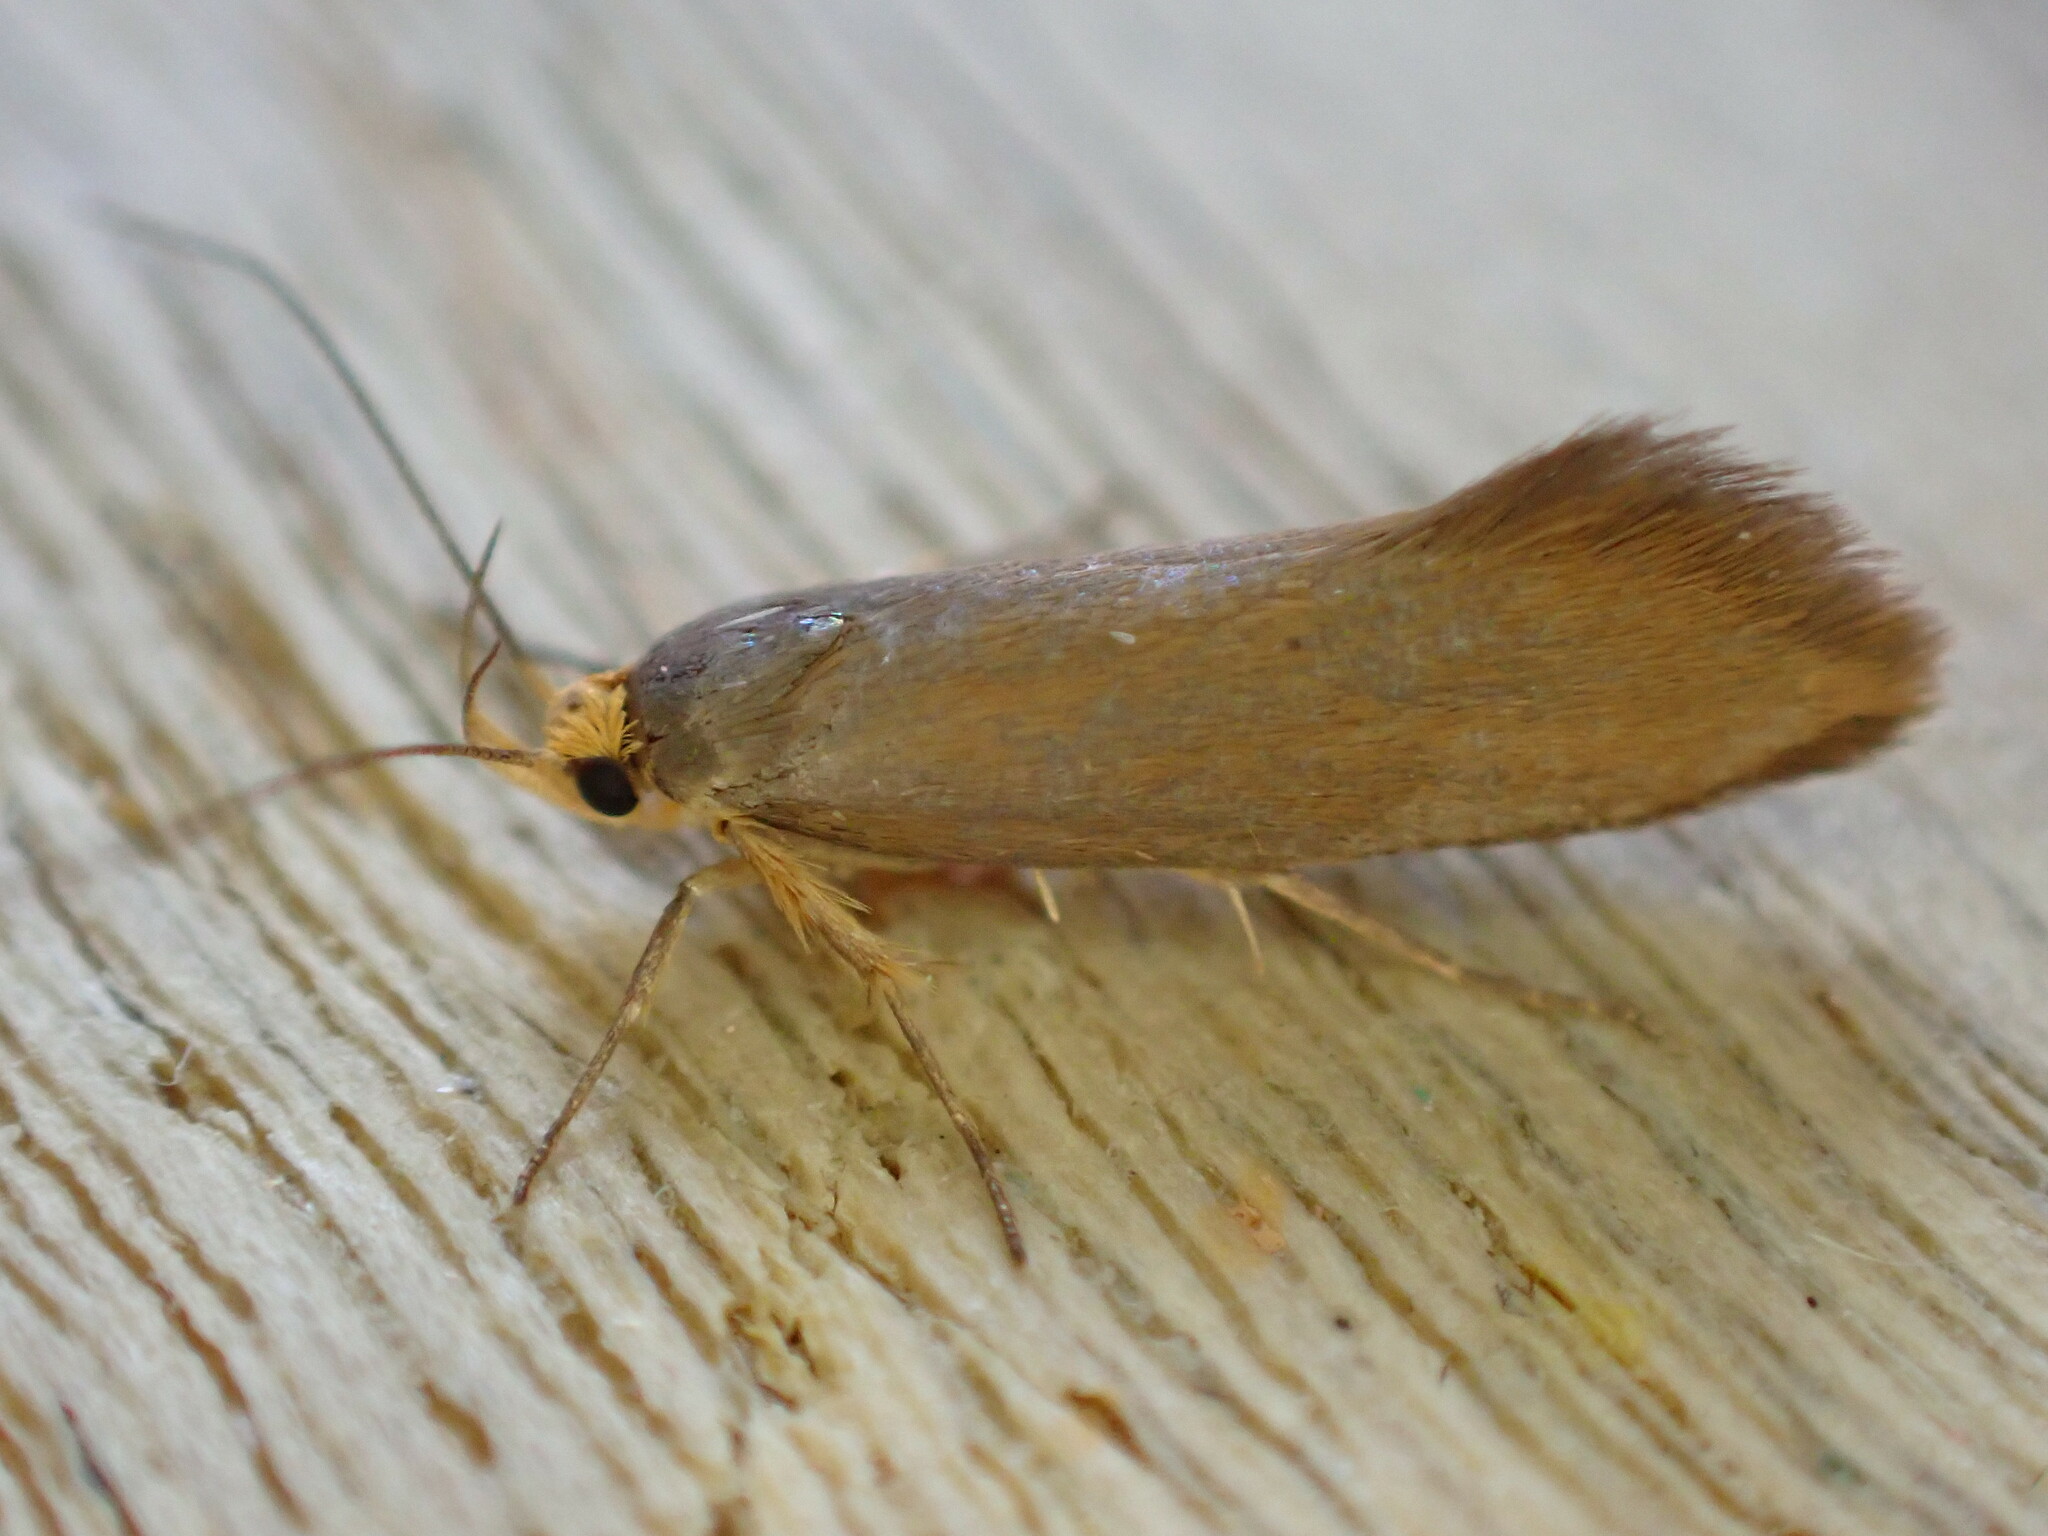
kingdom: Animalia
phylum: Arthropoda
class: Insecta
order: Lepidoptera
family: Oecophoridae
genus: Borkhausenia
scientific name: Borkhausenia Crassa unitella
